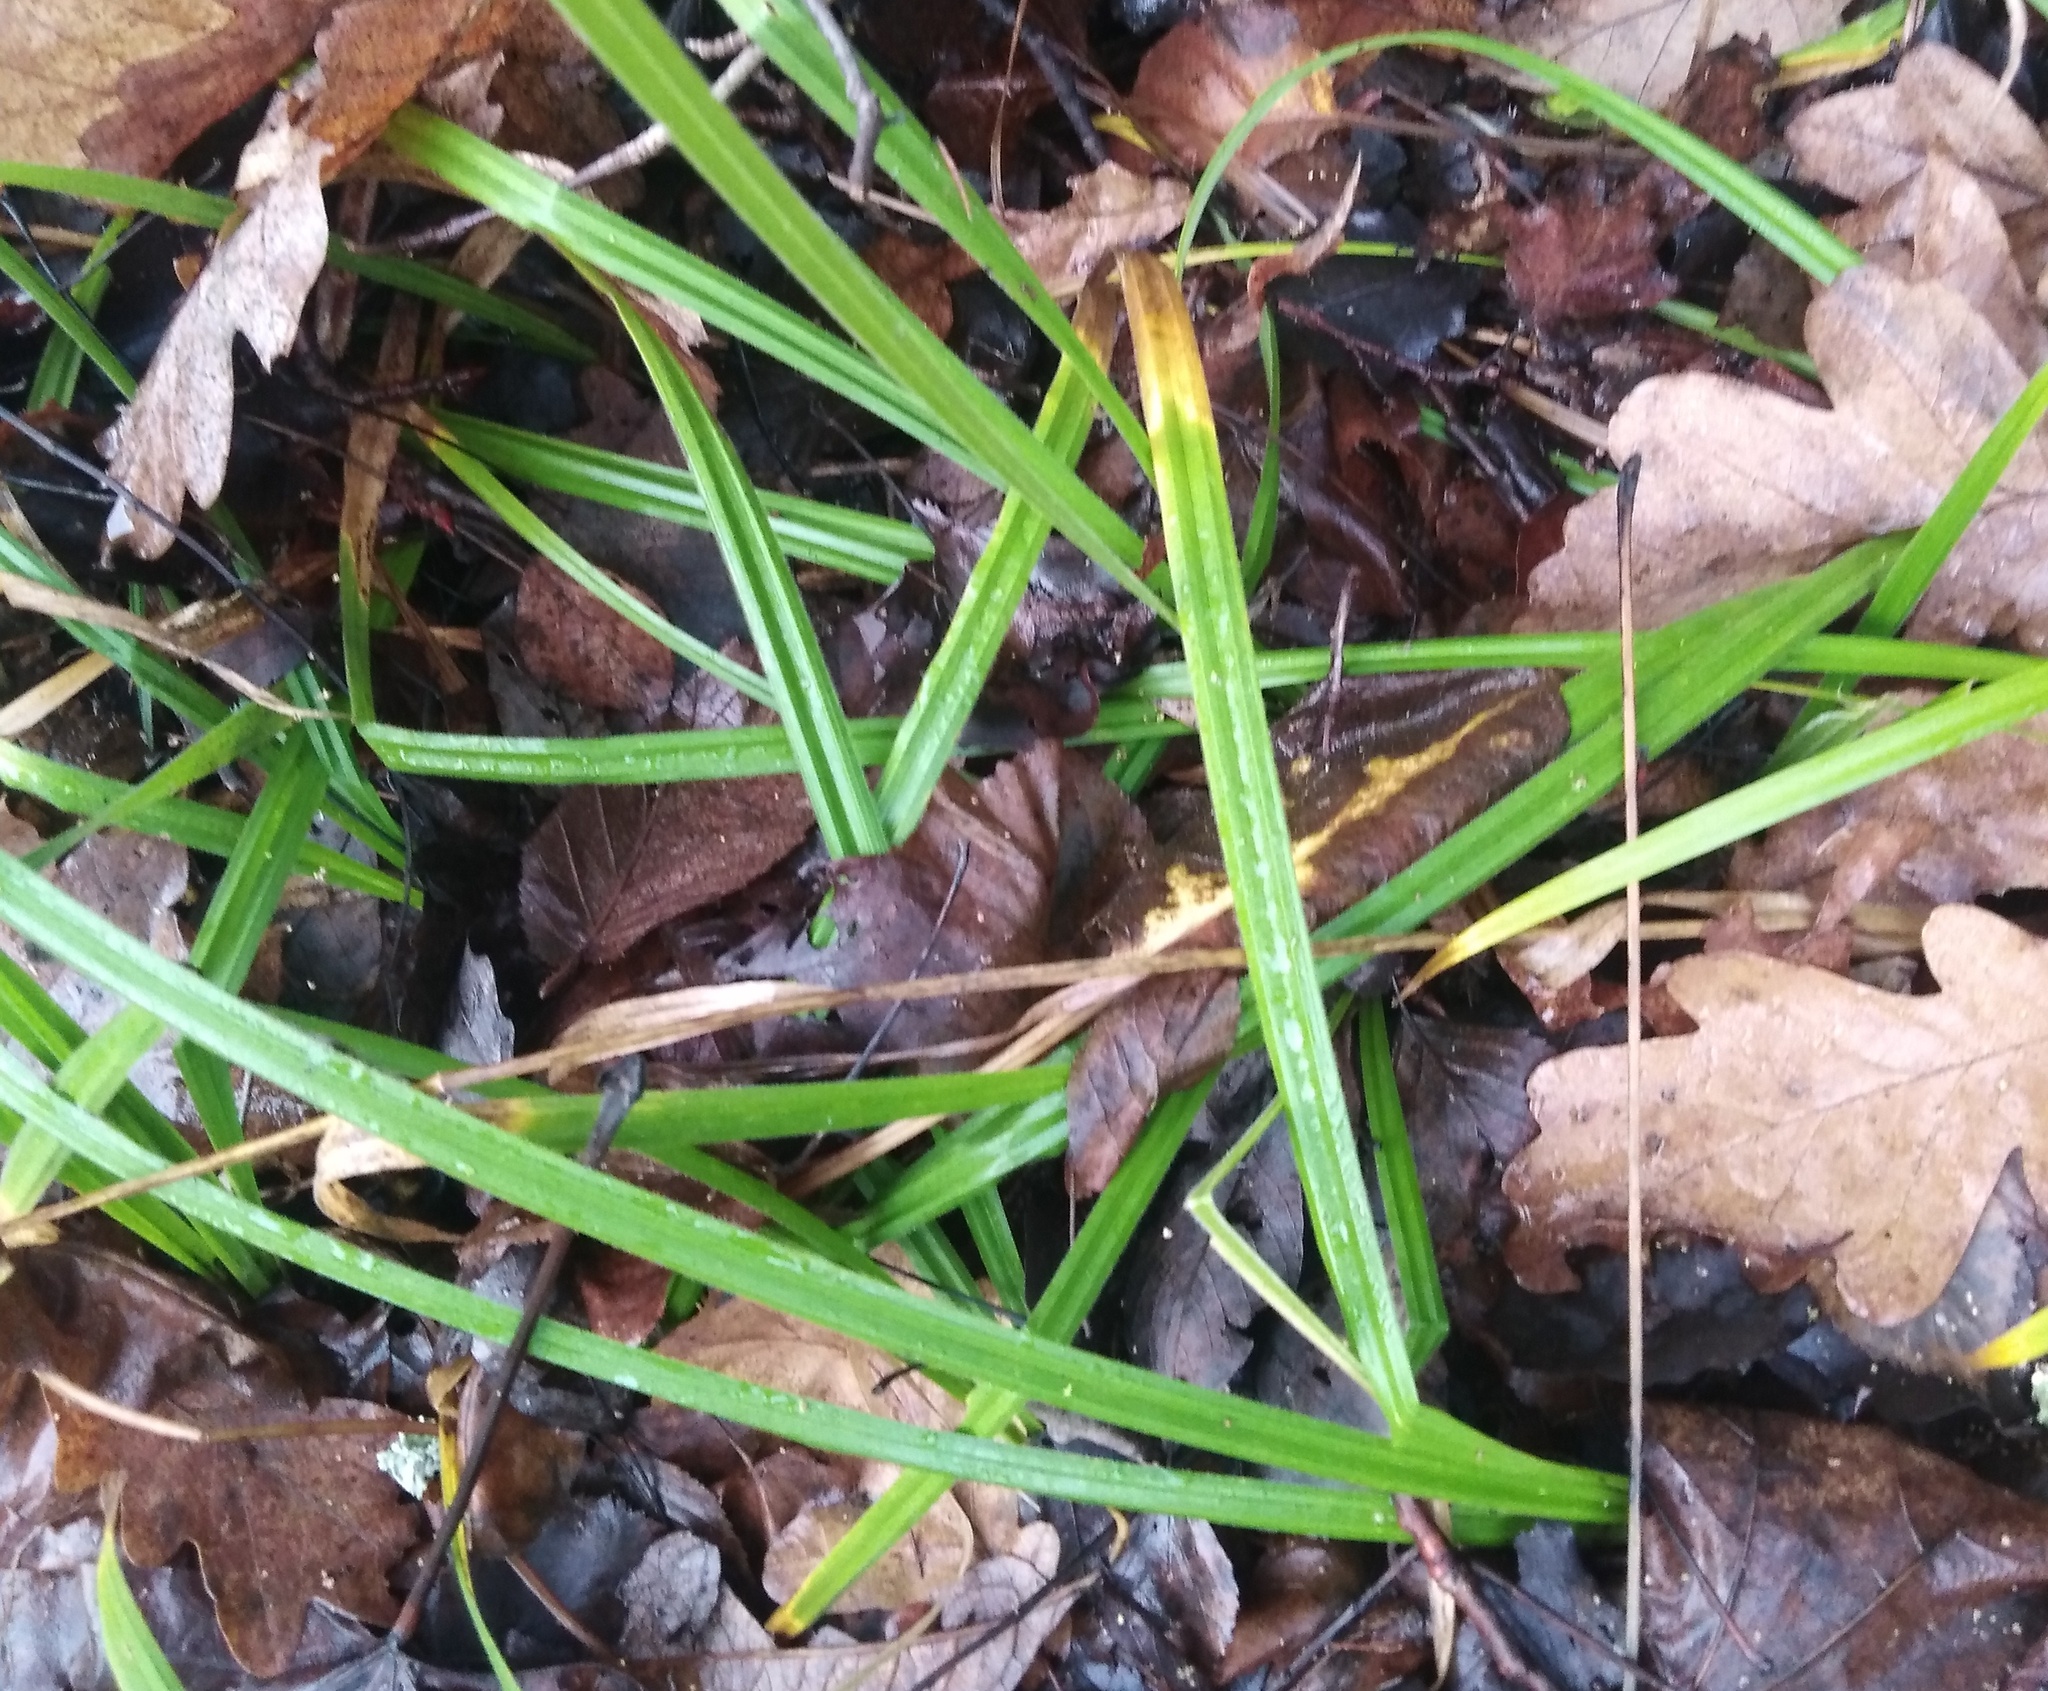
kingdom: Plantae
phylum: Tracheophyta
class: Liliopsida
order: Poales
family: Cyperaceae
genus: Carex
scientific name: Carex pilosa
